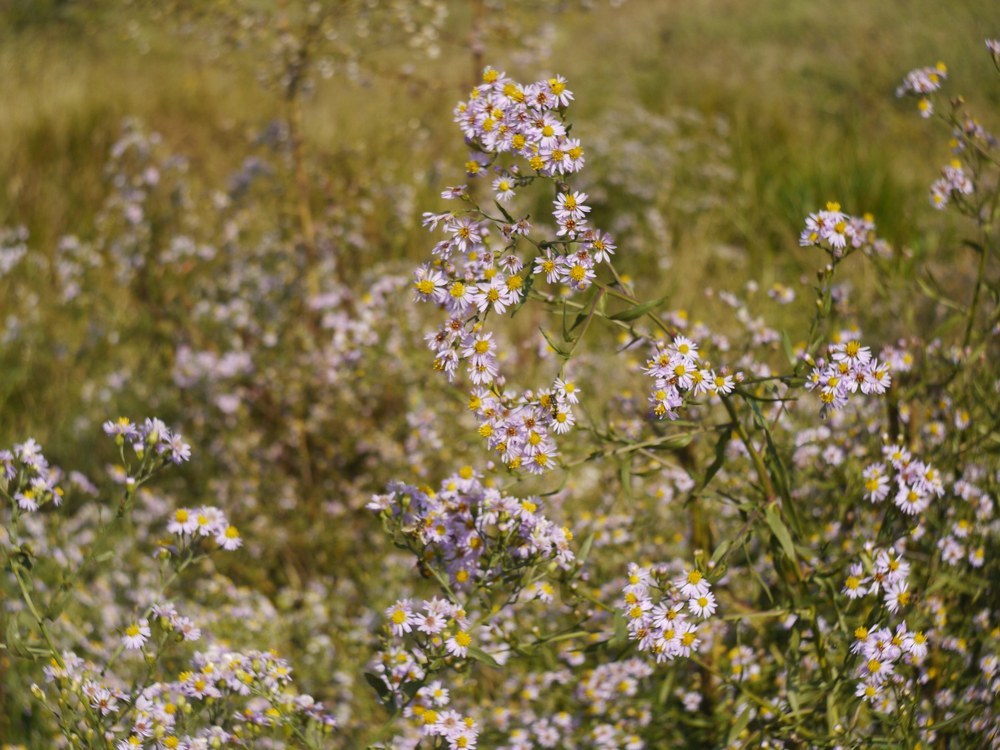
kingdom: Plantae
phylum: Tracheophyta
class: Magnoliopsida
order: Asterales
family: Asteraceae
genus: Tripolium
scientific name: Tripolium pannonicum
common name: Sea aster
